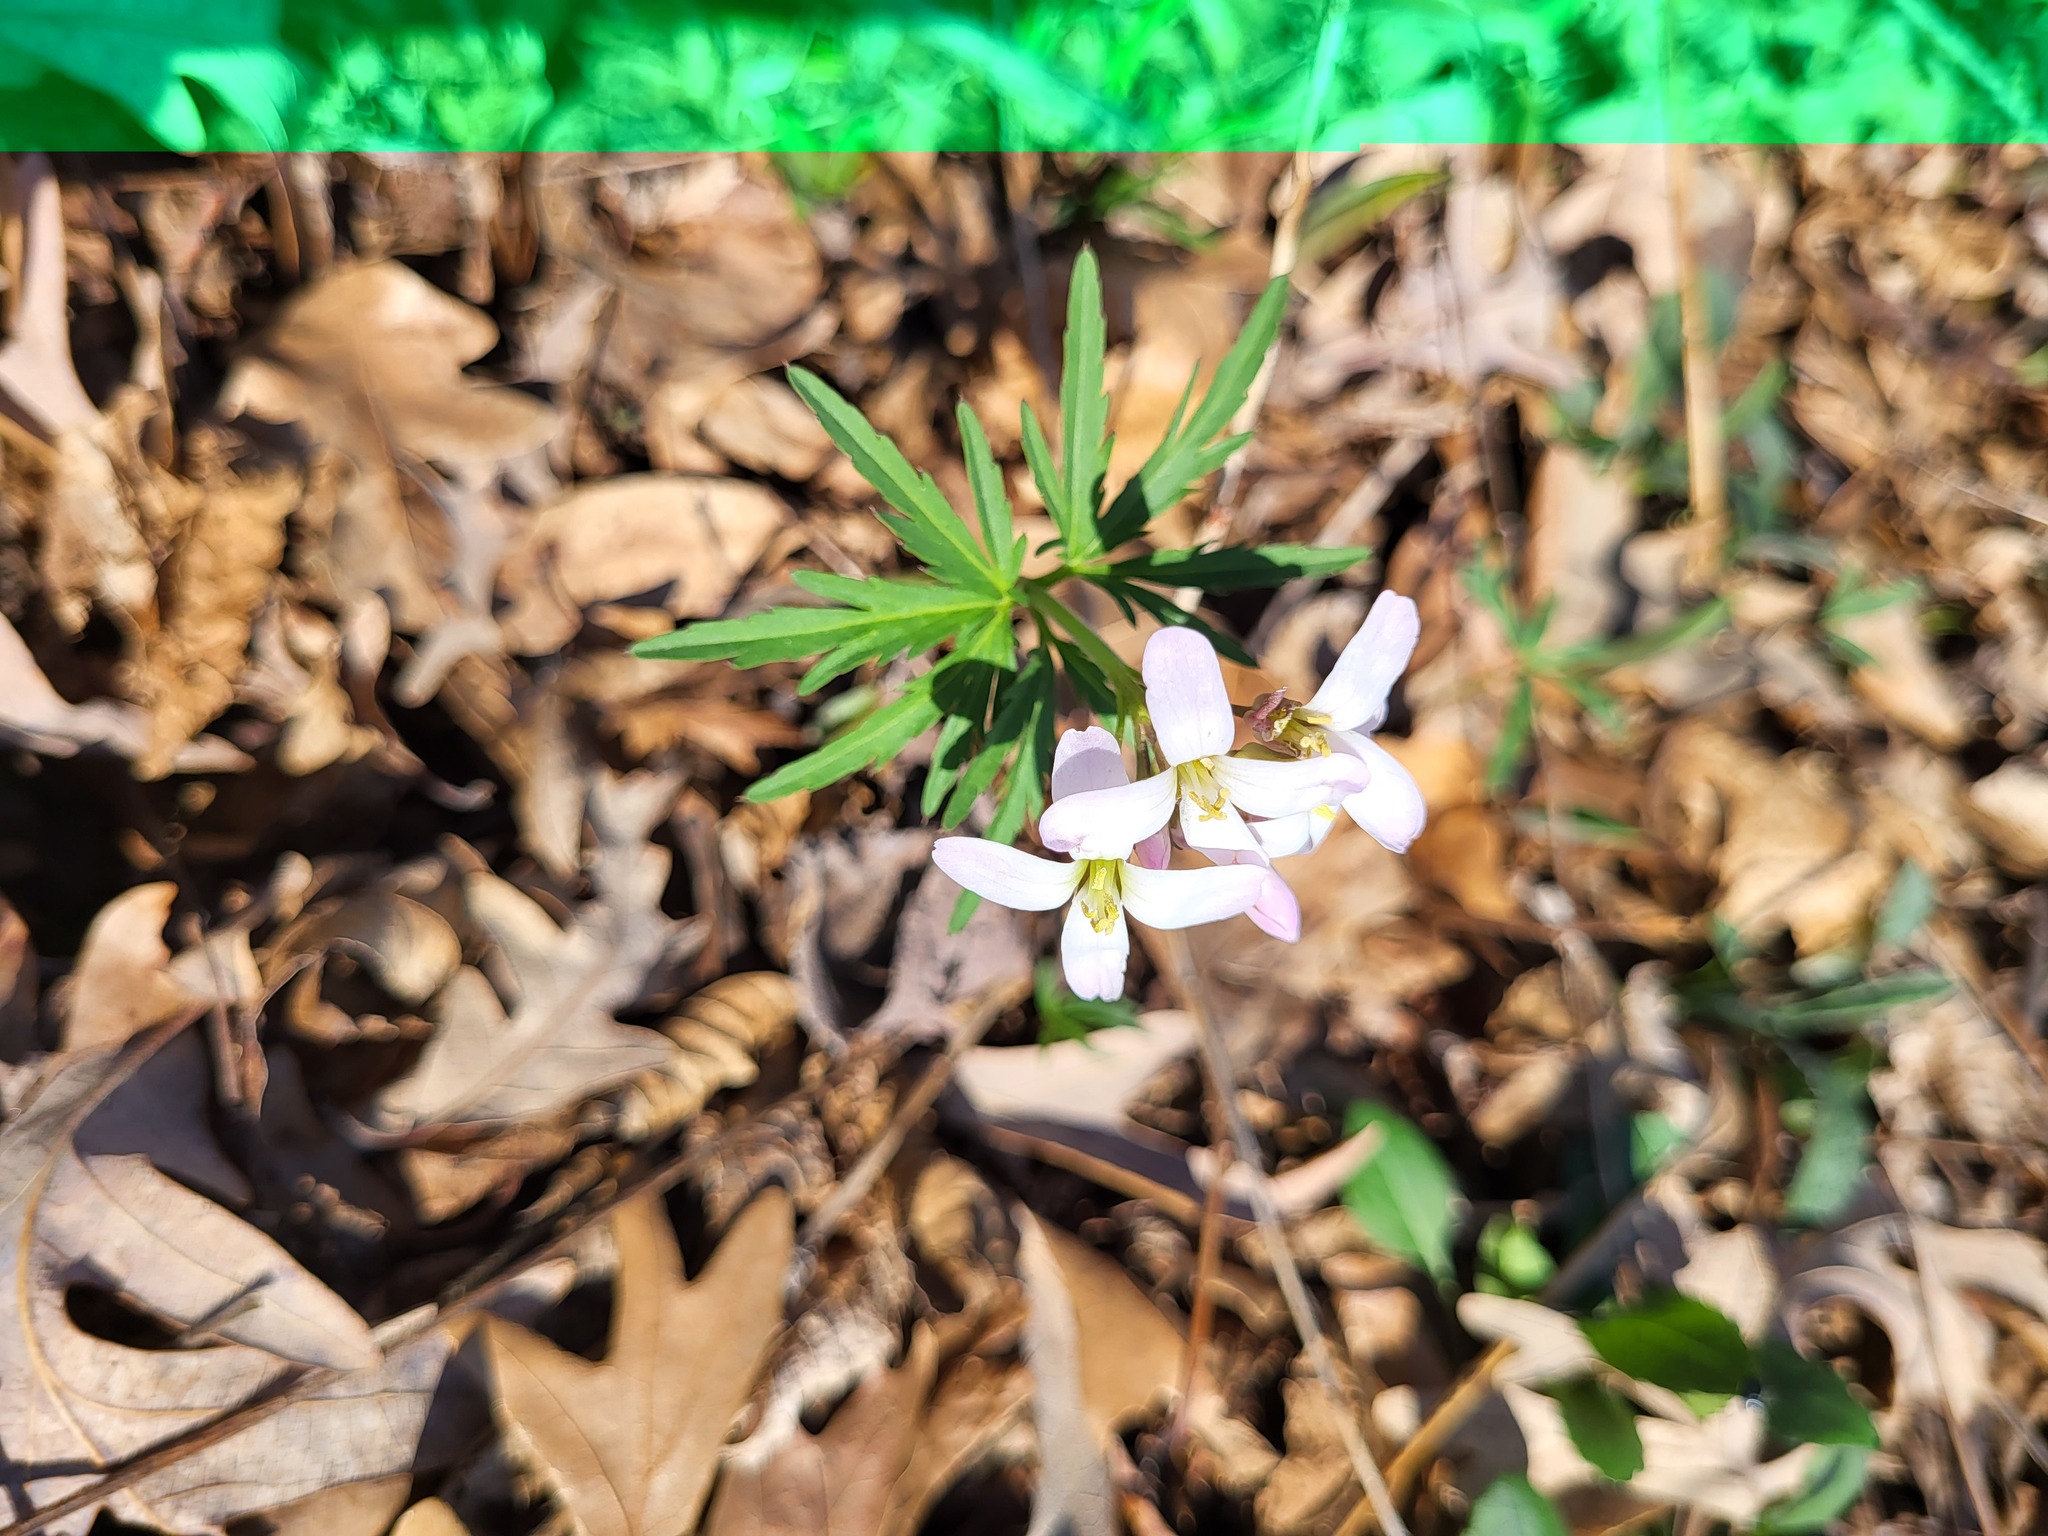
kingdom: Plantae
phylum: Tracheophyta
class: Magnoliopsida
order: Brassicales
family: Brassicaceae
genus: Cardamine
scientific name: Cardamine concatenata
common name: Cut-leaf toothcup
